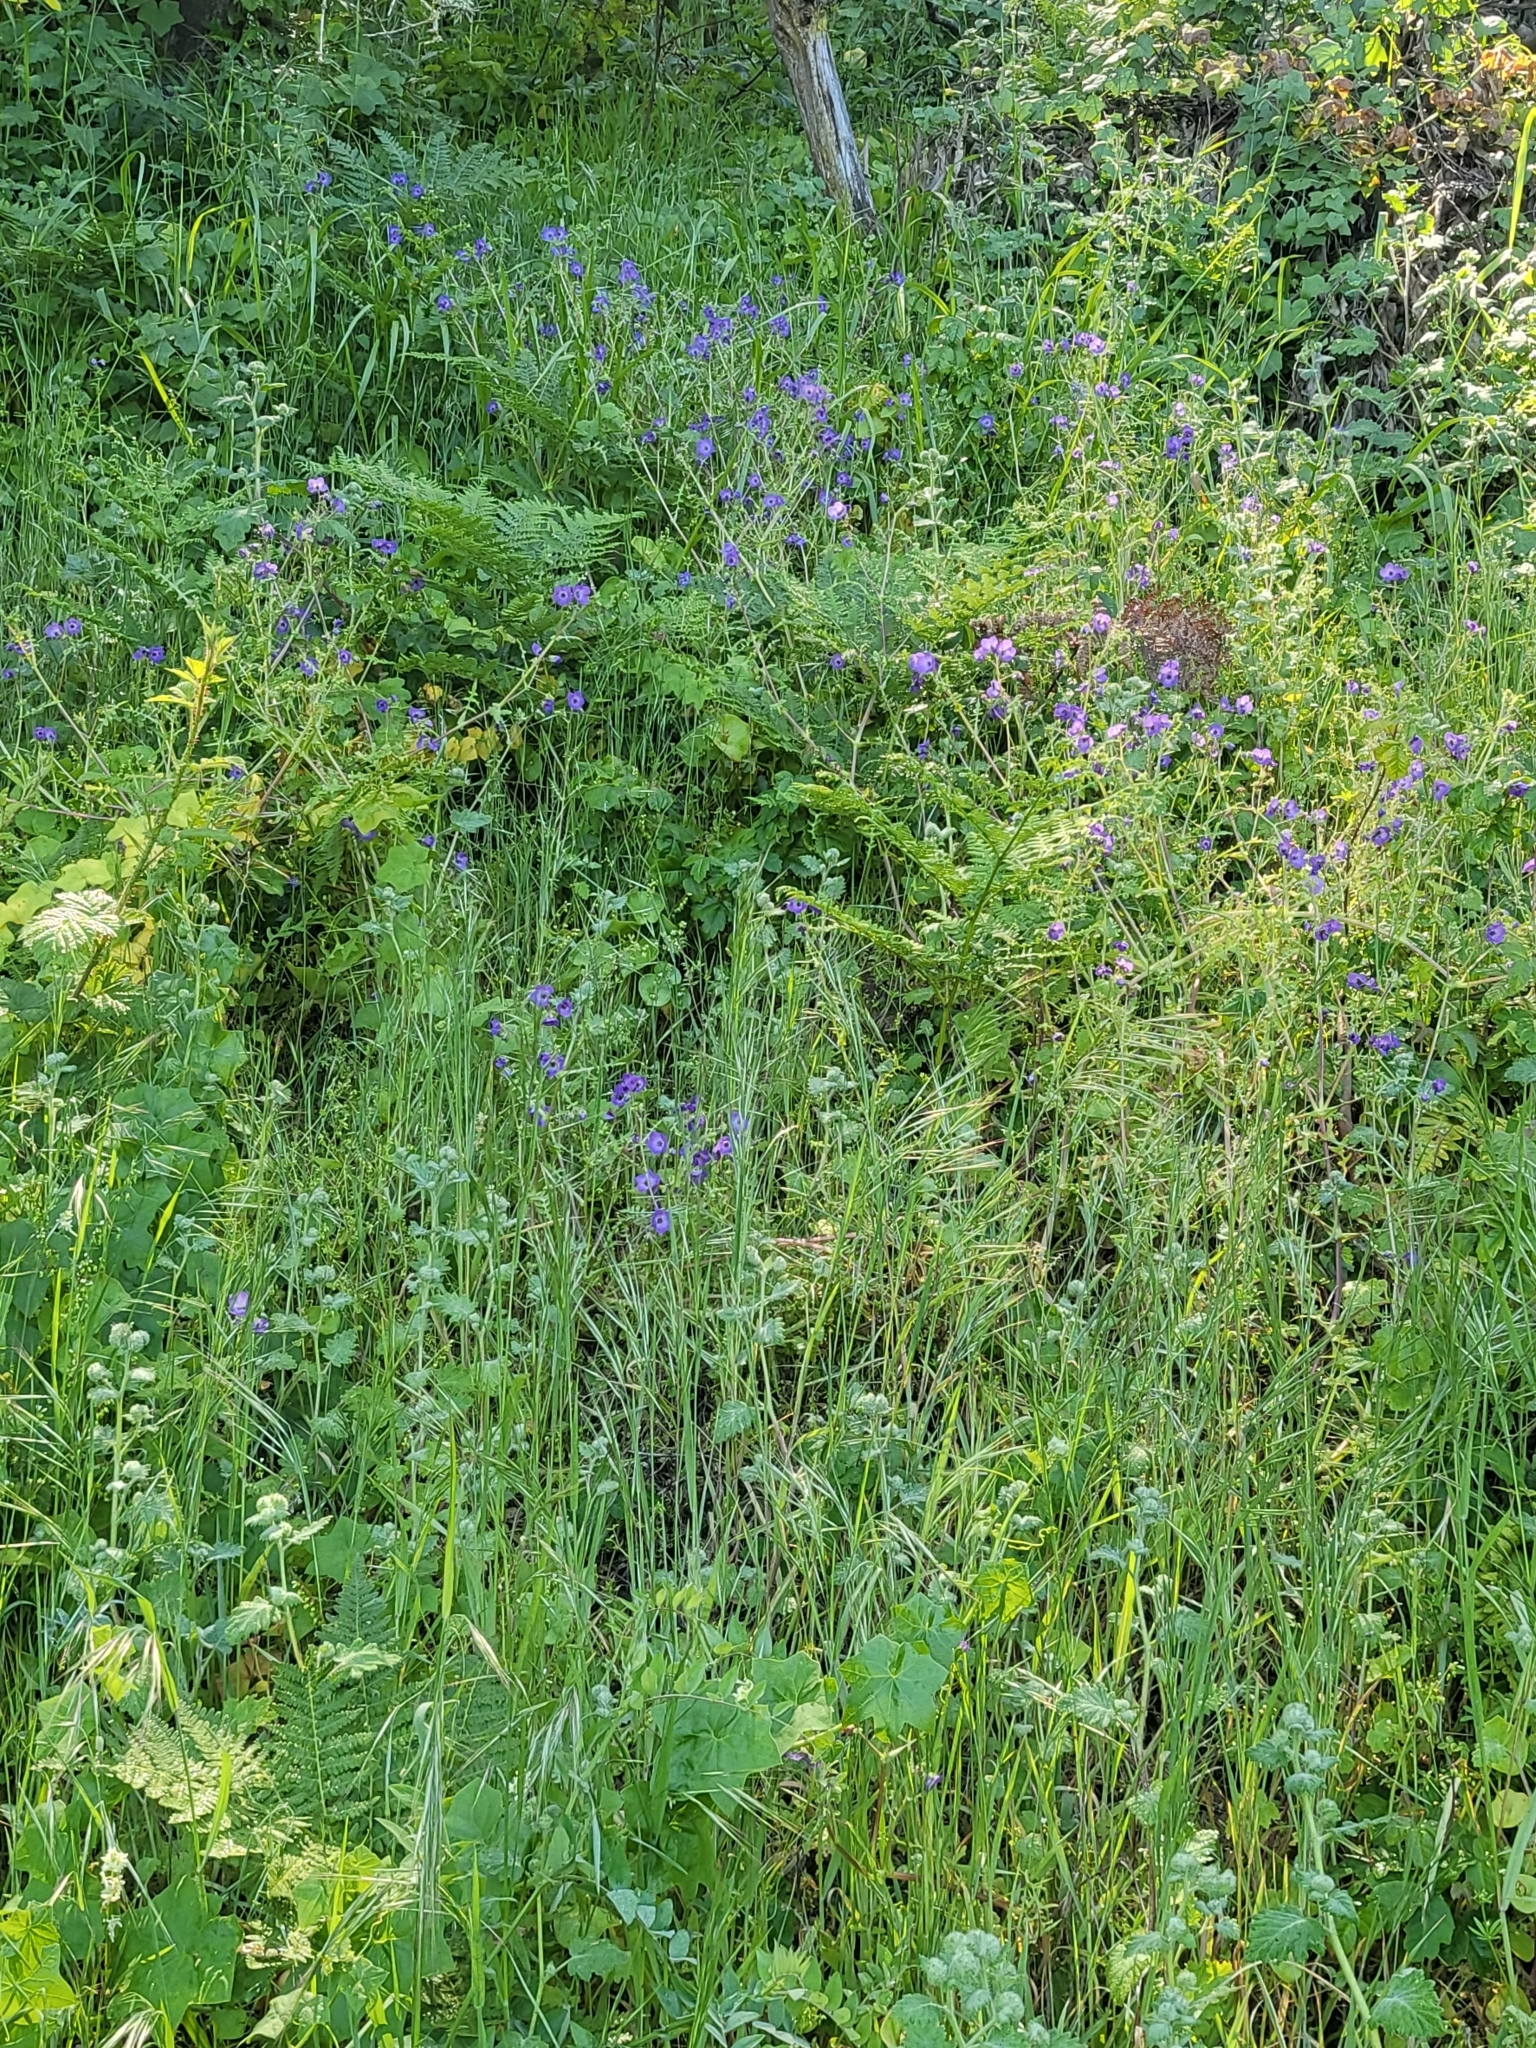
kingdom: Plantae
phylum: Tracheophyta
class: Magnoliopsida
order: Boraginales
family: Hydrophyllaceae
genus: Pholistoma
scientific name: Pholistoma auritum
